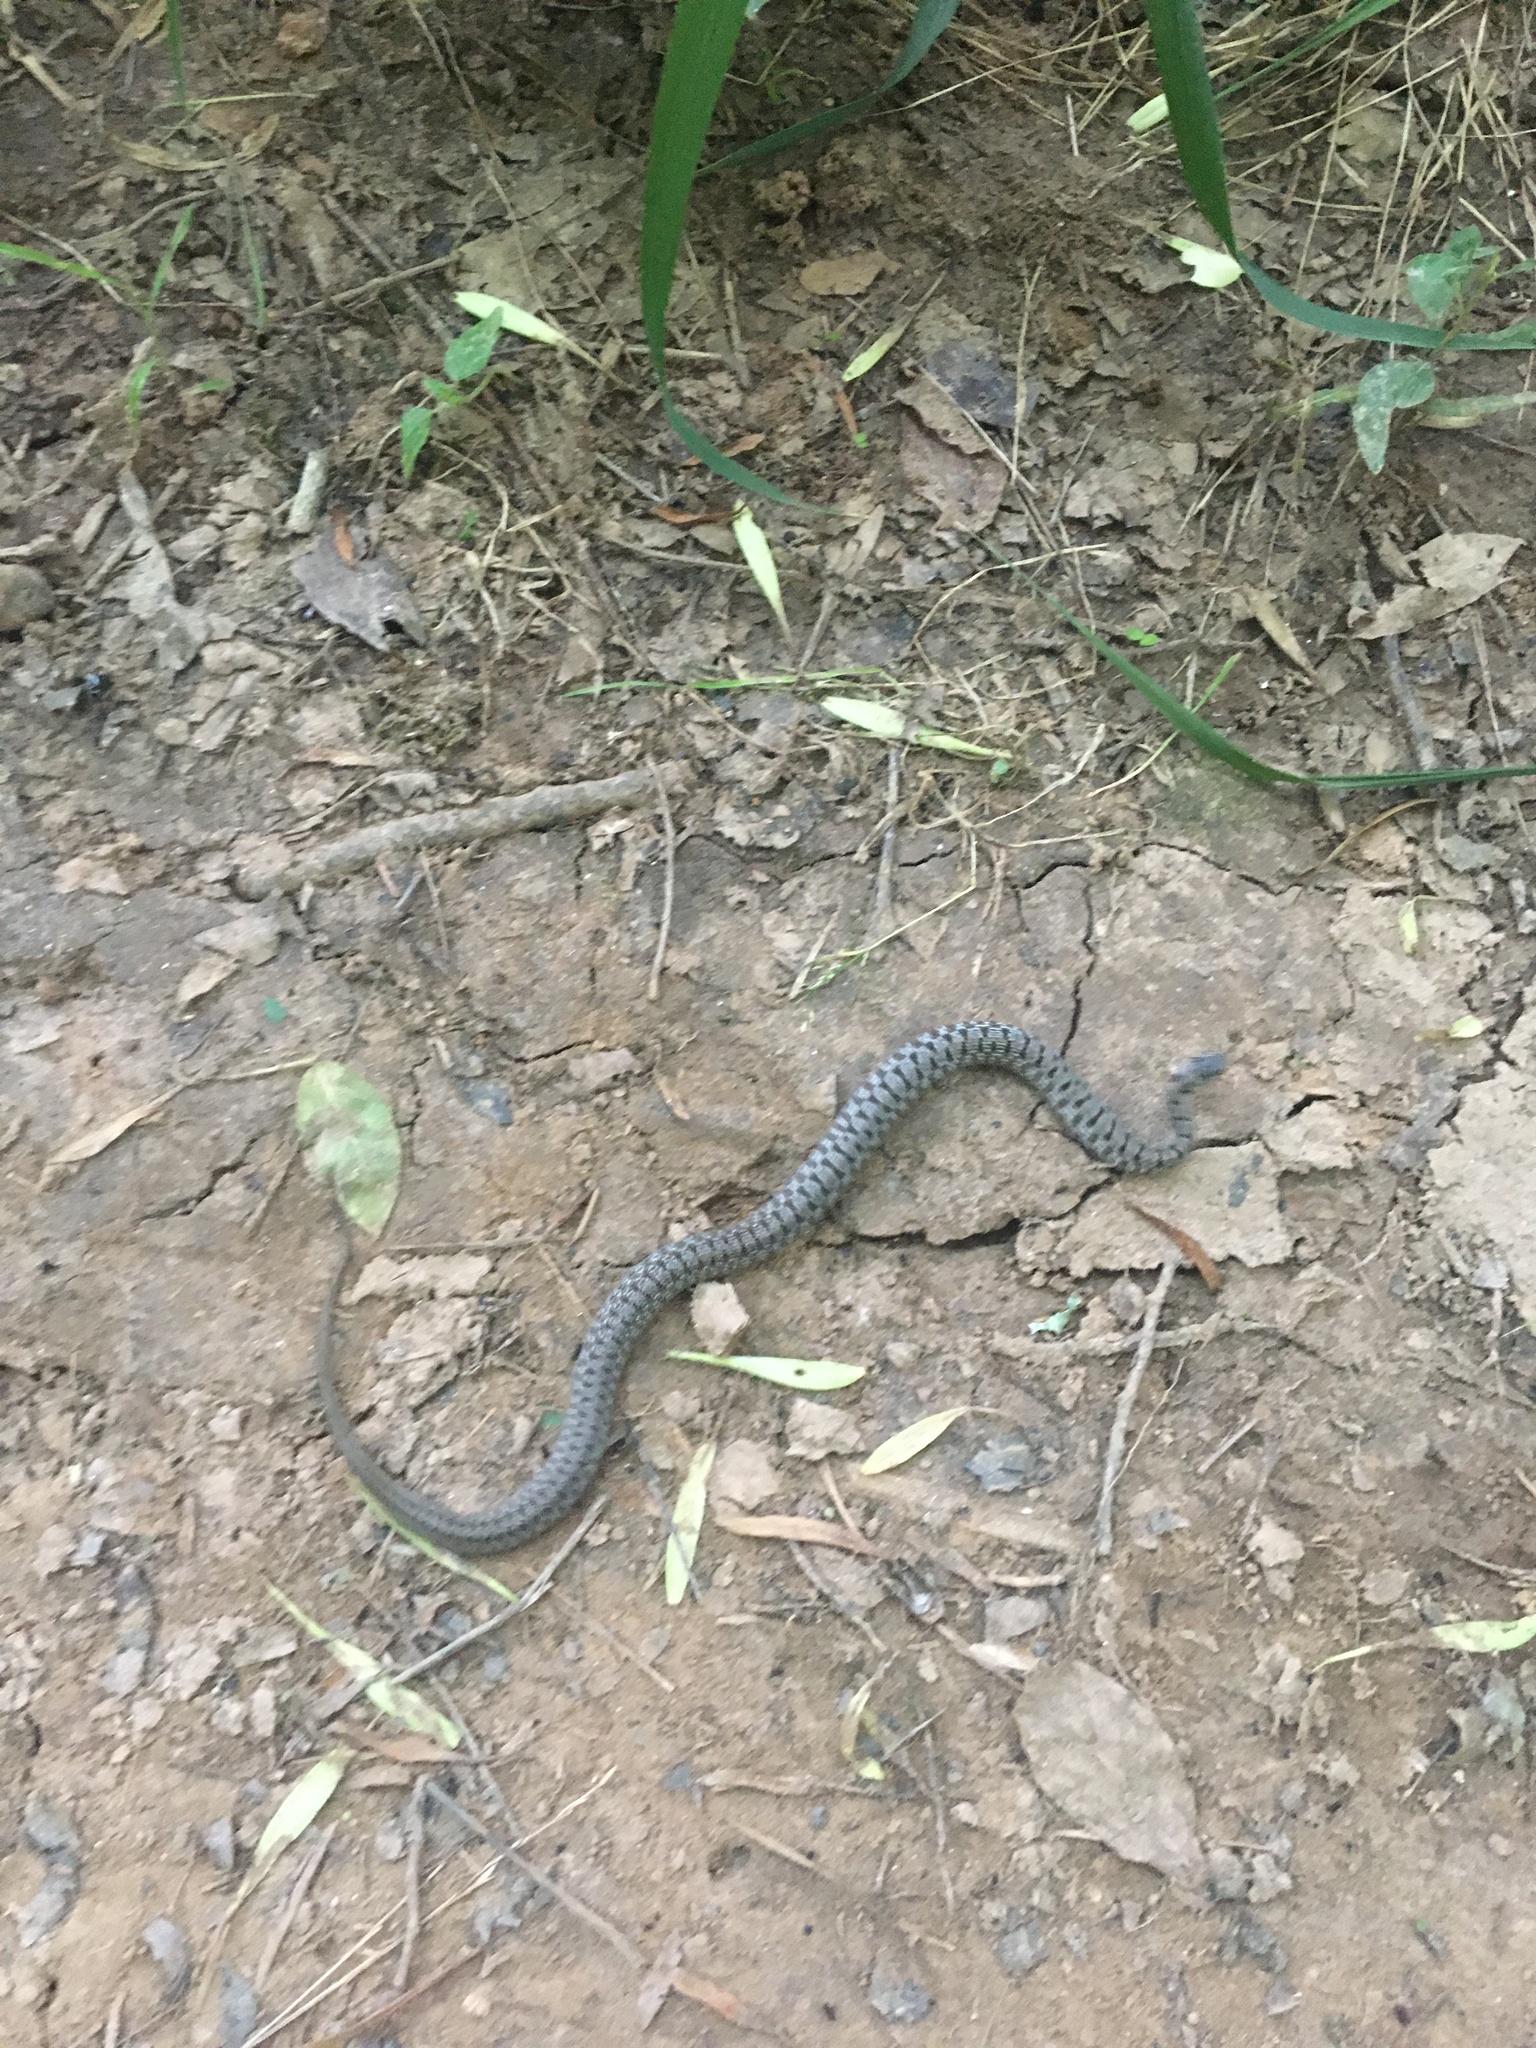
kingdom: Animalia
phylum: Chordata
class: Squamata
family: Colubridae
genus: Storeria
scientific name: Storeria dekayi
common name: (dekay’s) brown snake
